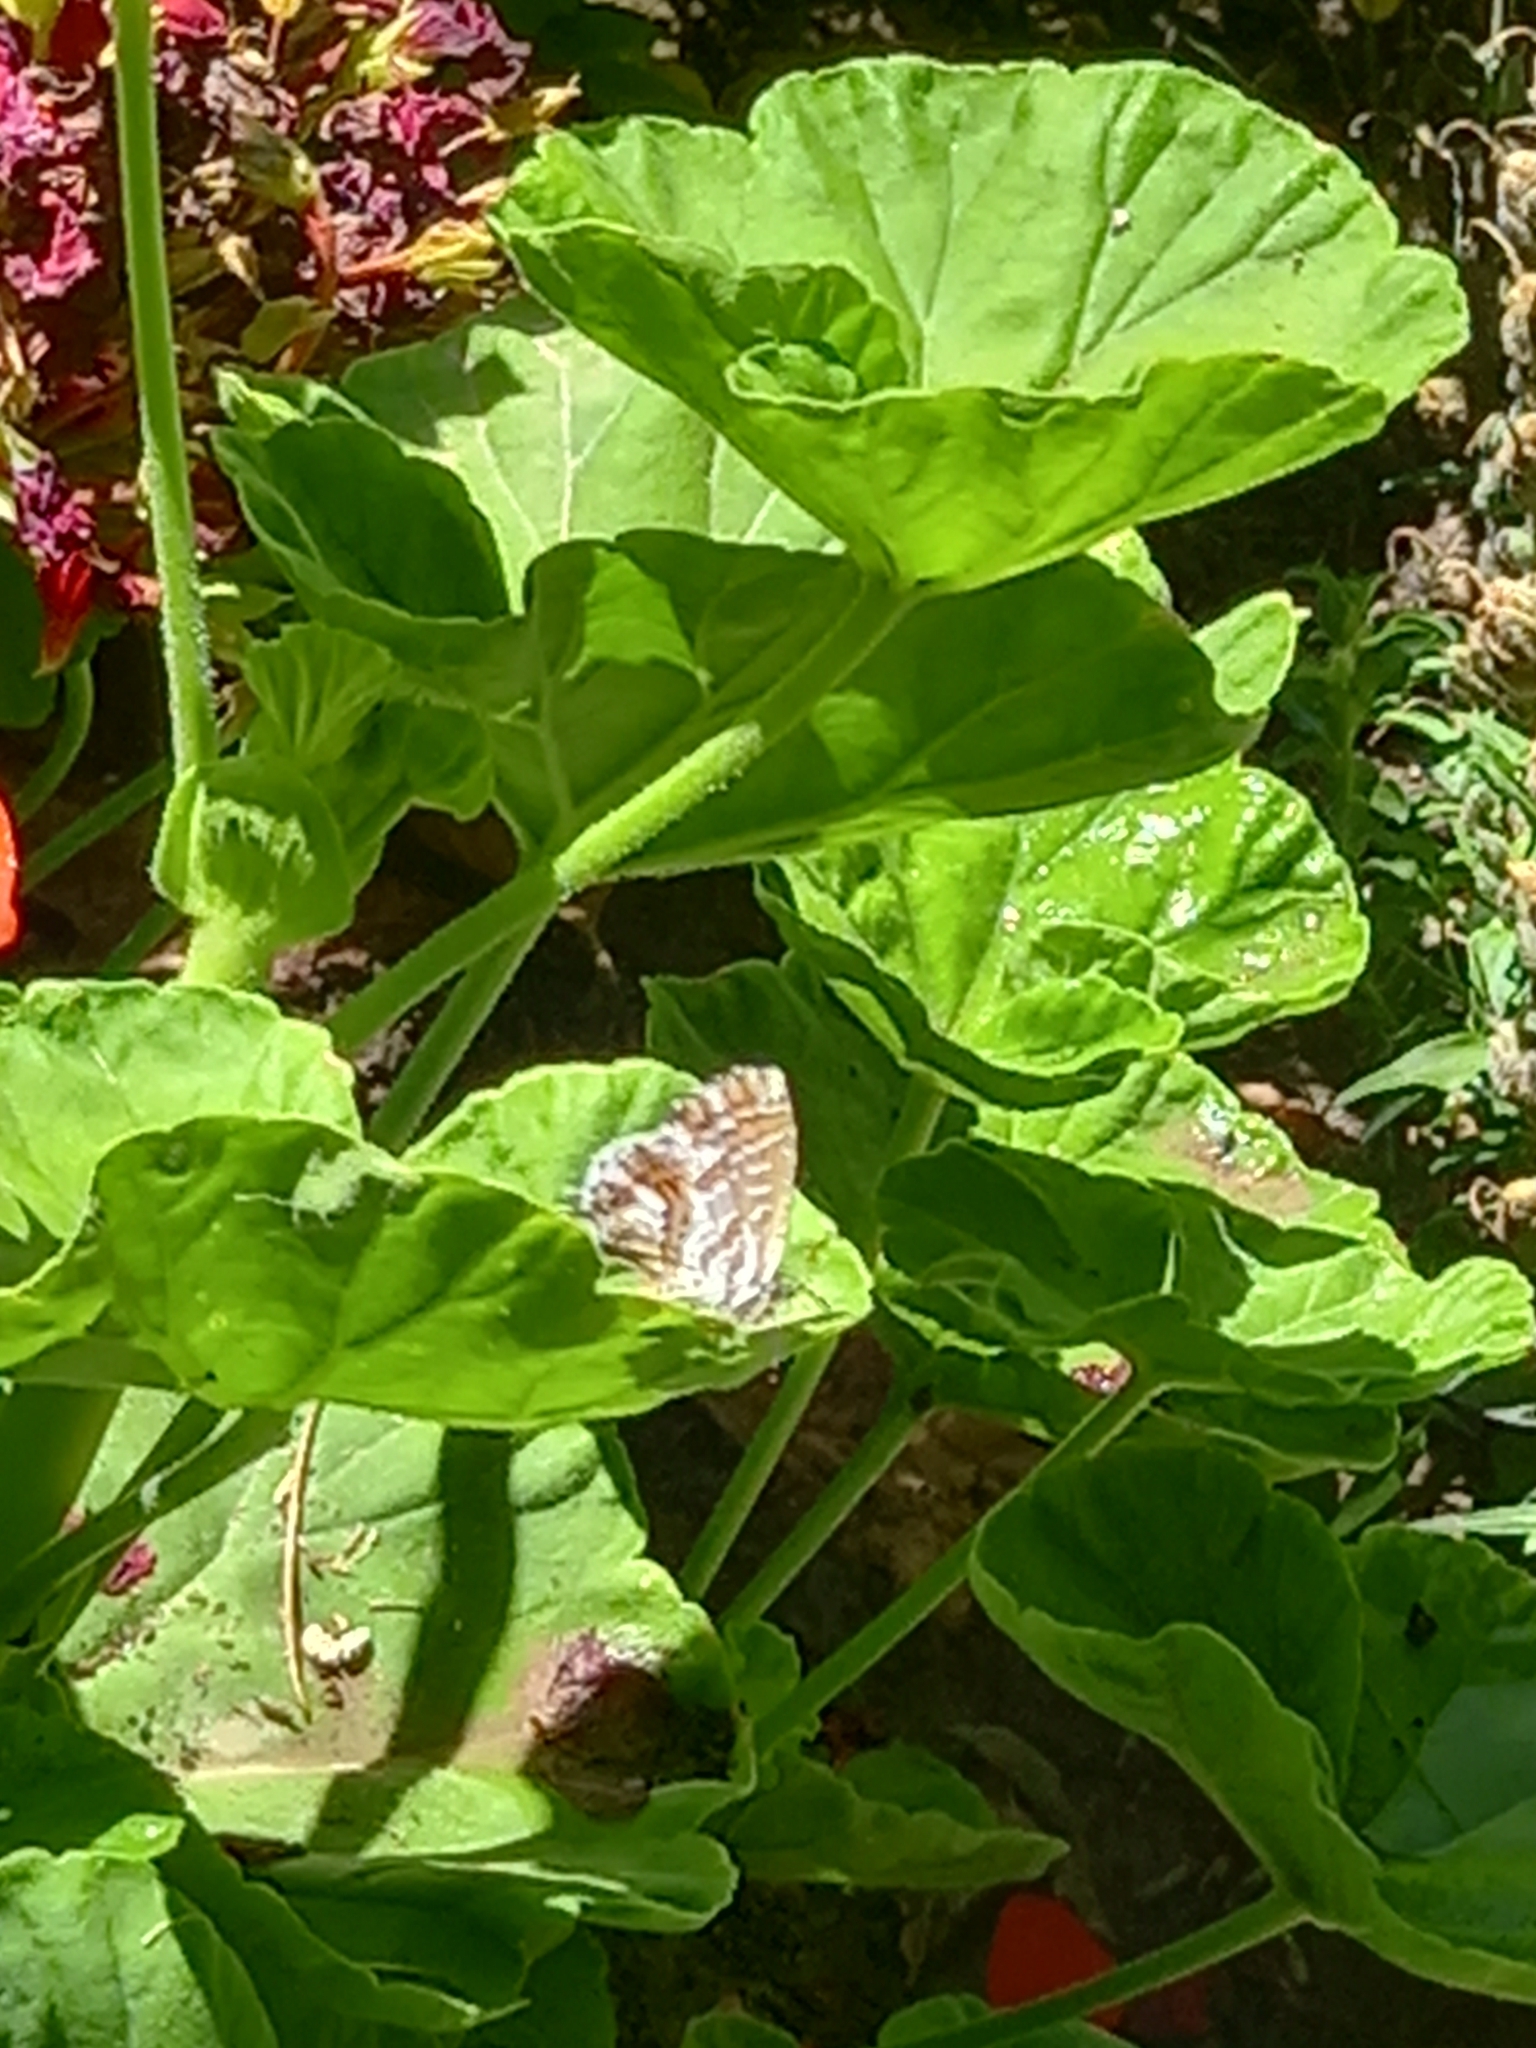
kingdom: Animalia
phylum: Arthropoda
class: Insecta
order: Lepidoptera
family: Lycaenidae
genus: Cacyreus
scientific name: Cacyreus marshalli
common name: Geranium bronze
